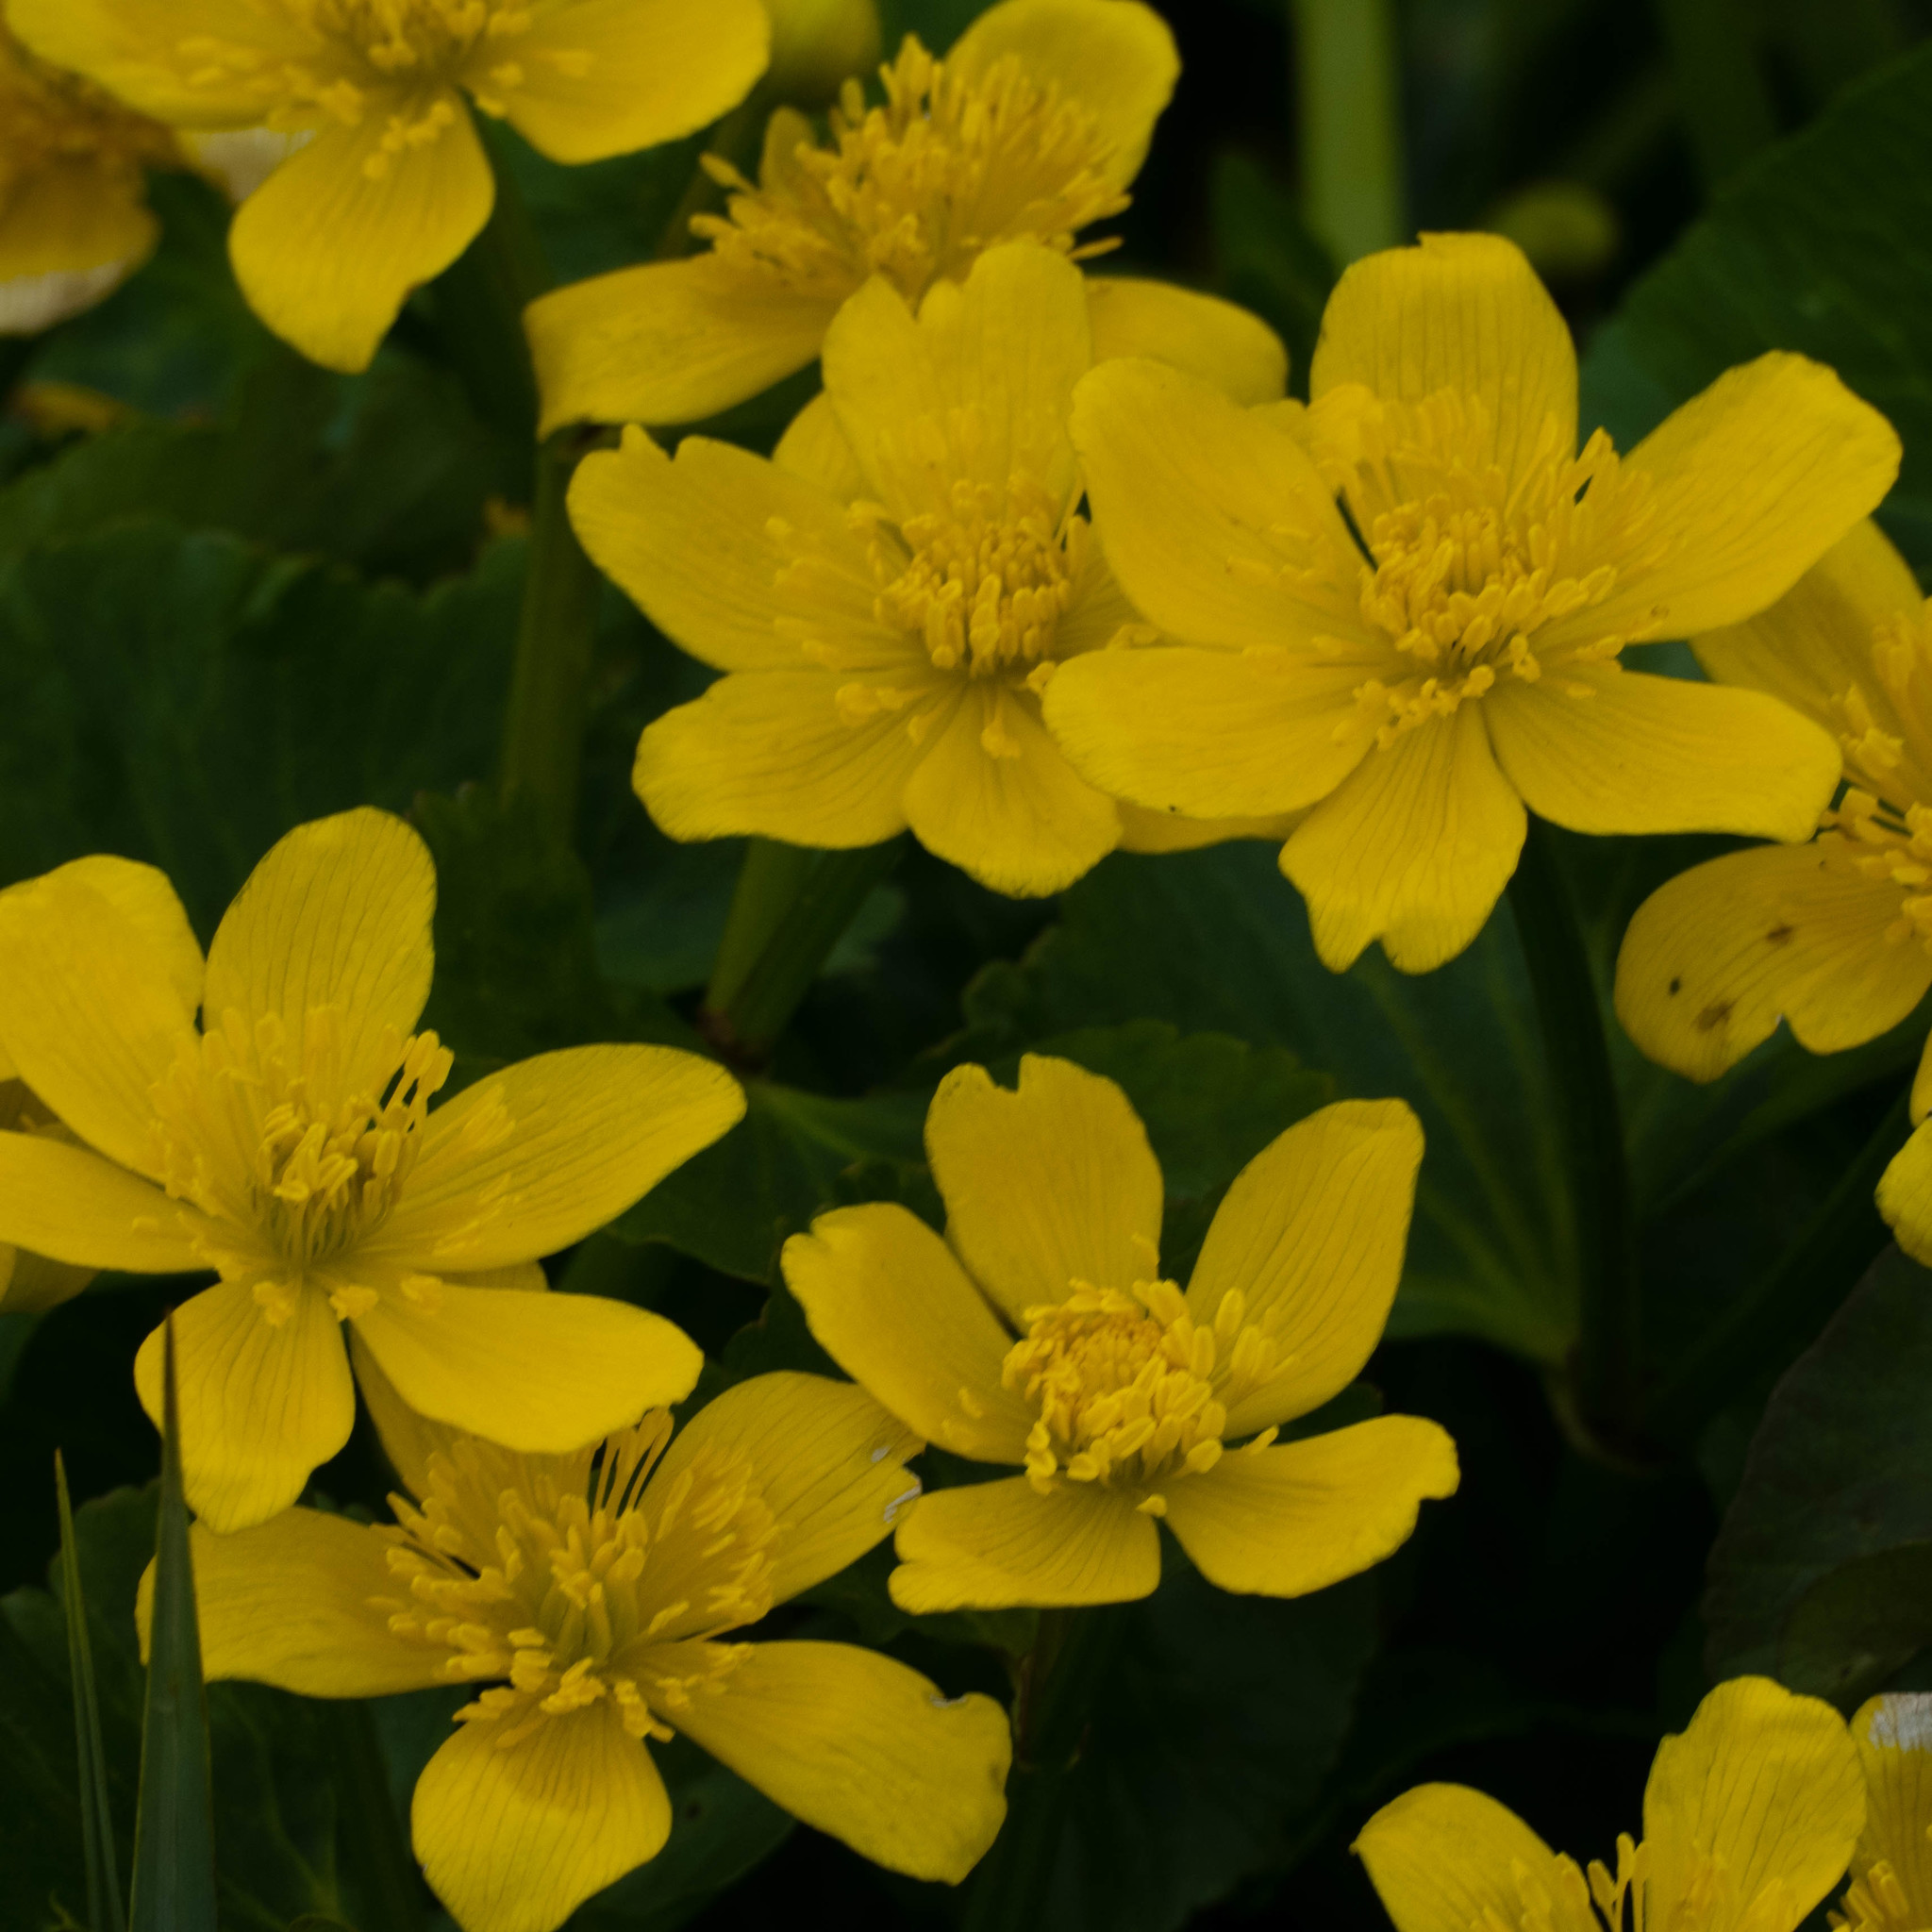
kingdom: Plantae
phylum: Tracheophyta
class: Magnoliopsida
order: Ranunculales
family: Ranunculaceae
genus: Caltha
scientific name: Caltha palustris
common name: Marsh marigold
